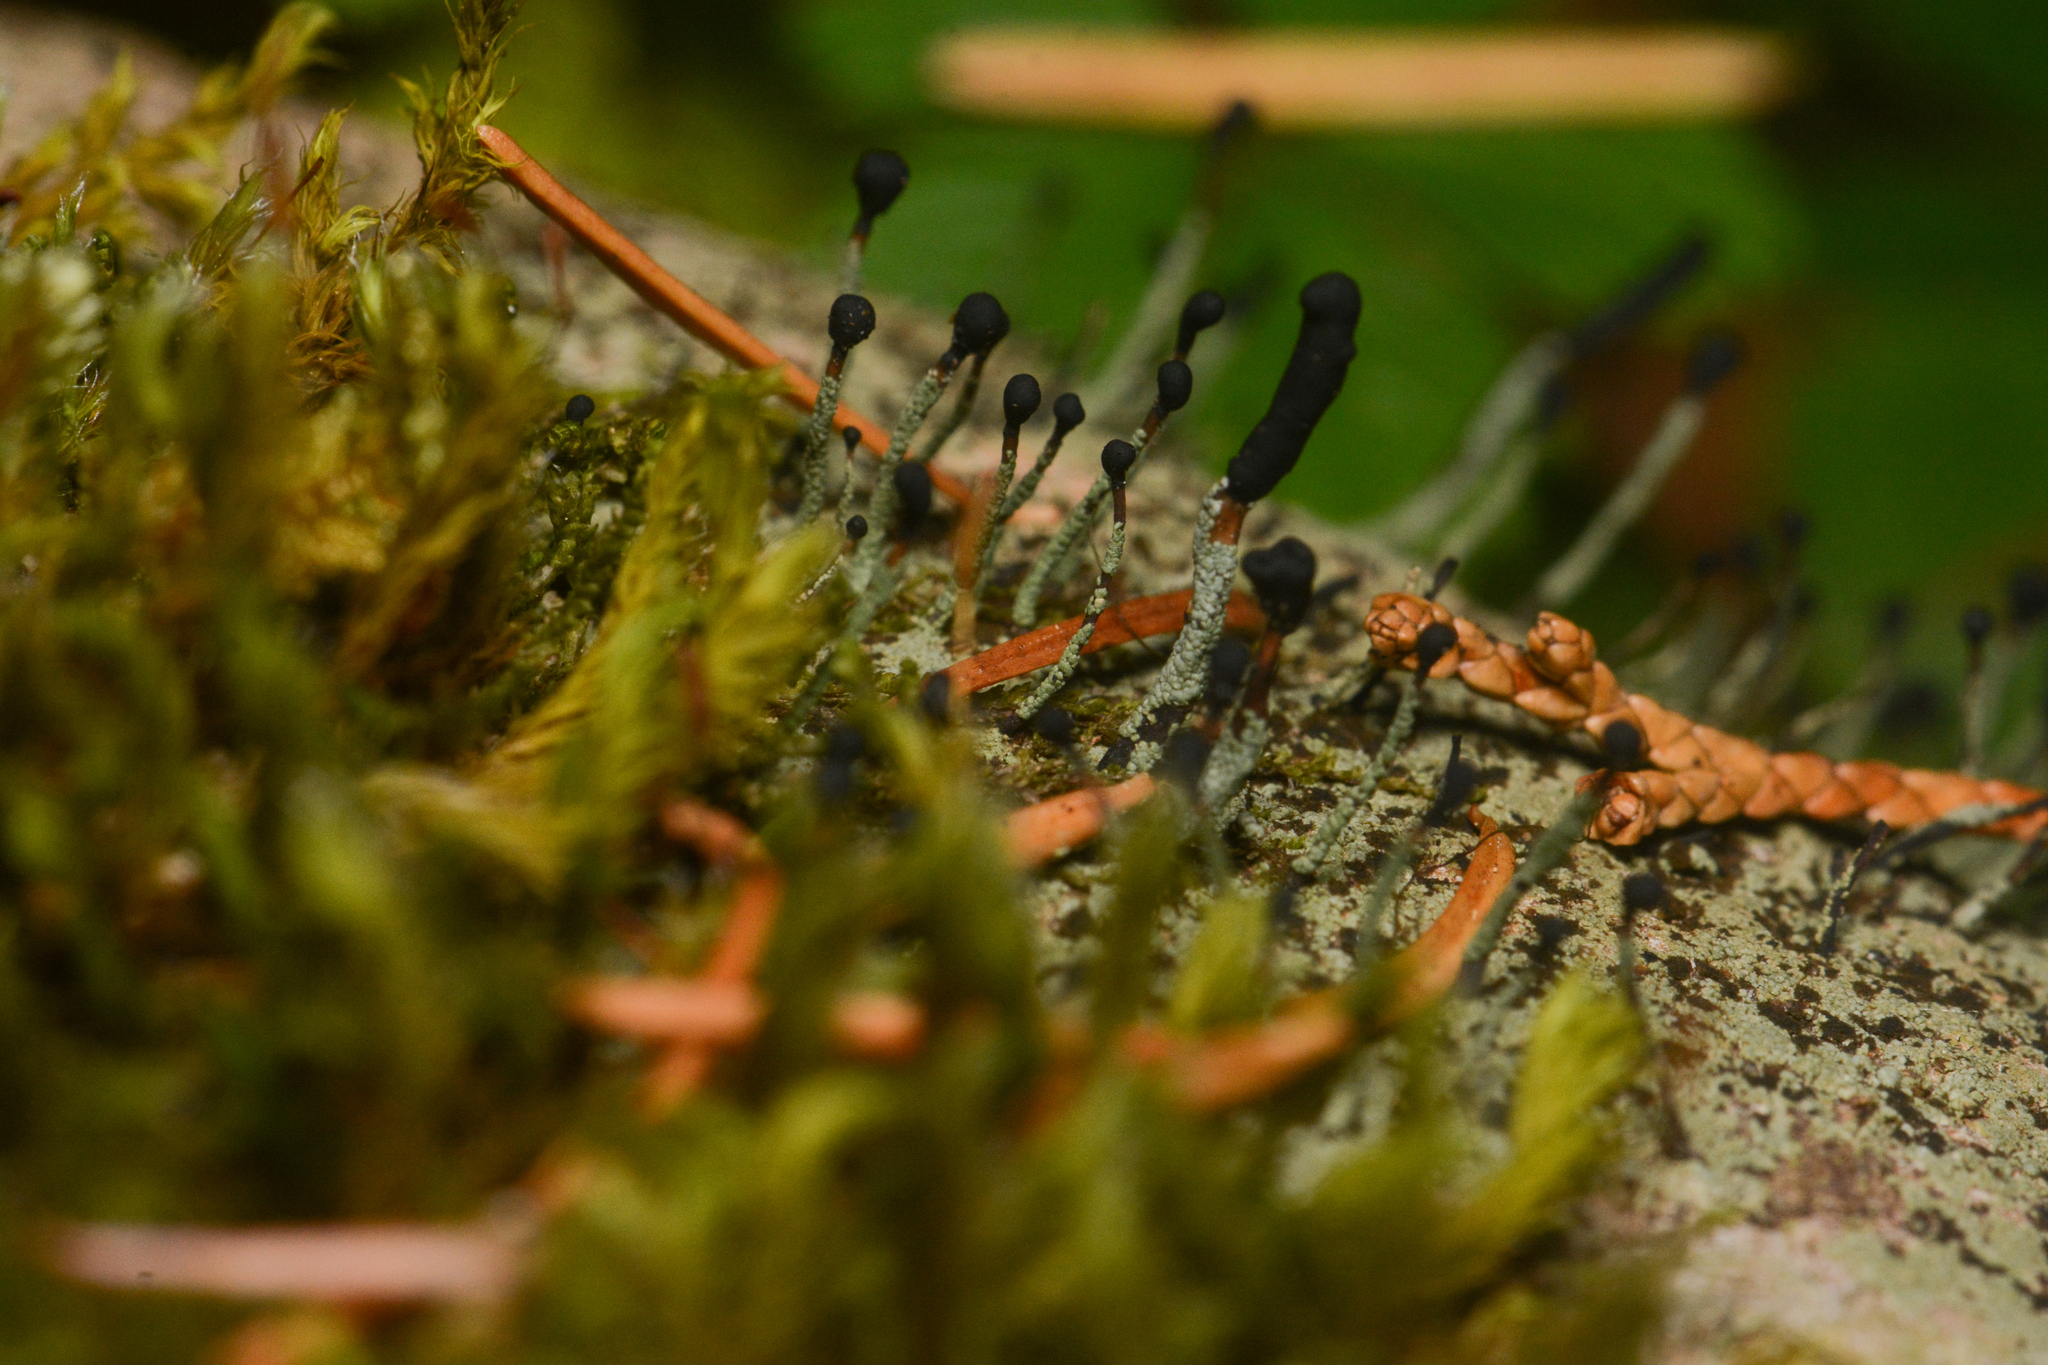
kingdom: Fungi
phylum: Ascomycota
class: Lecanoromycetes
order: Lecanorales
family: Cladoniaceae
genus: Pilophorus
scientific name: Pilophorus clavatus
